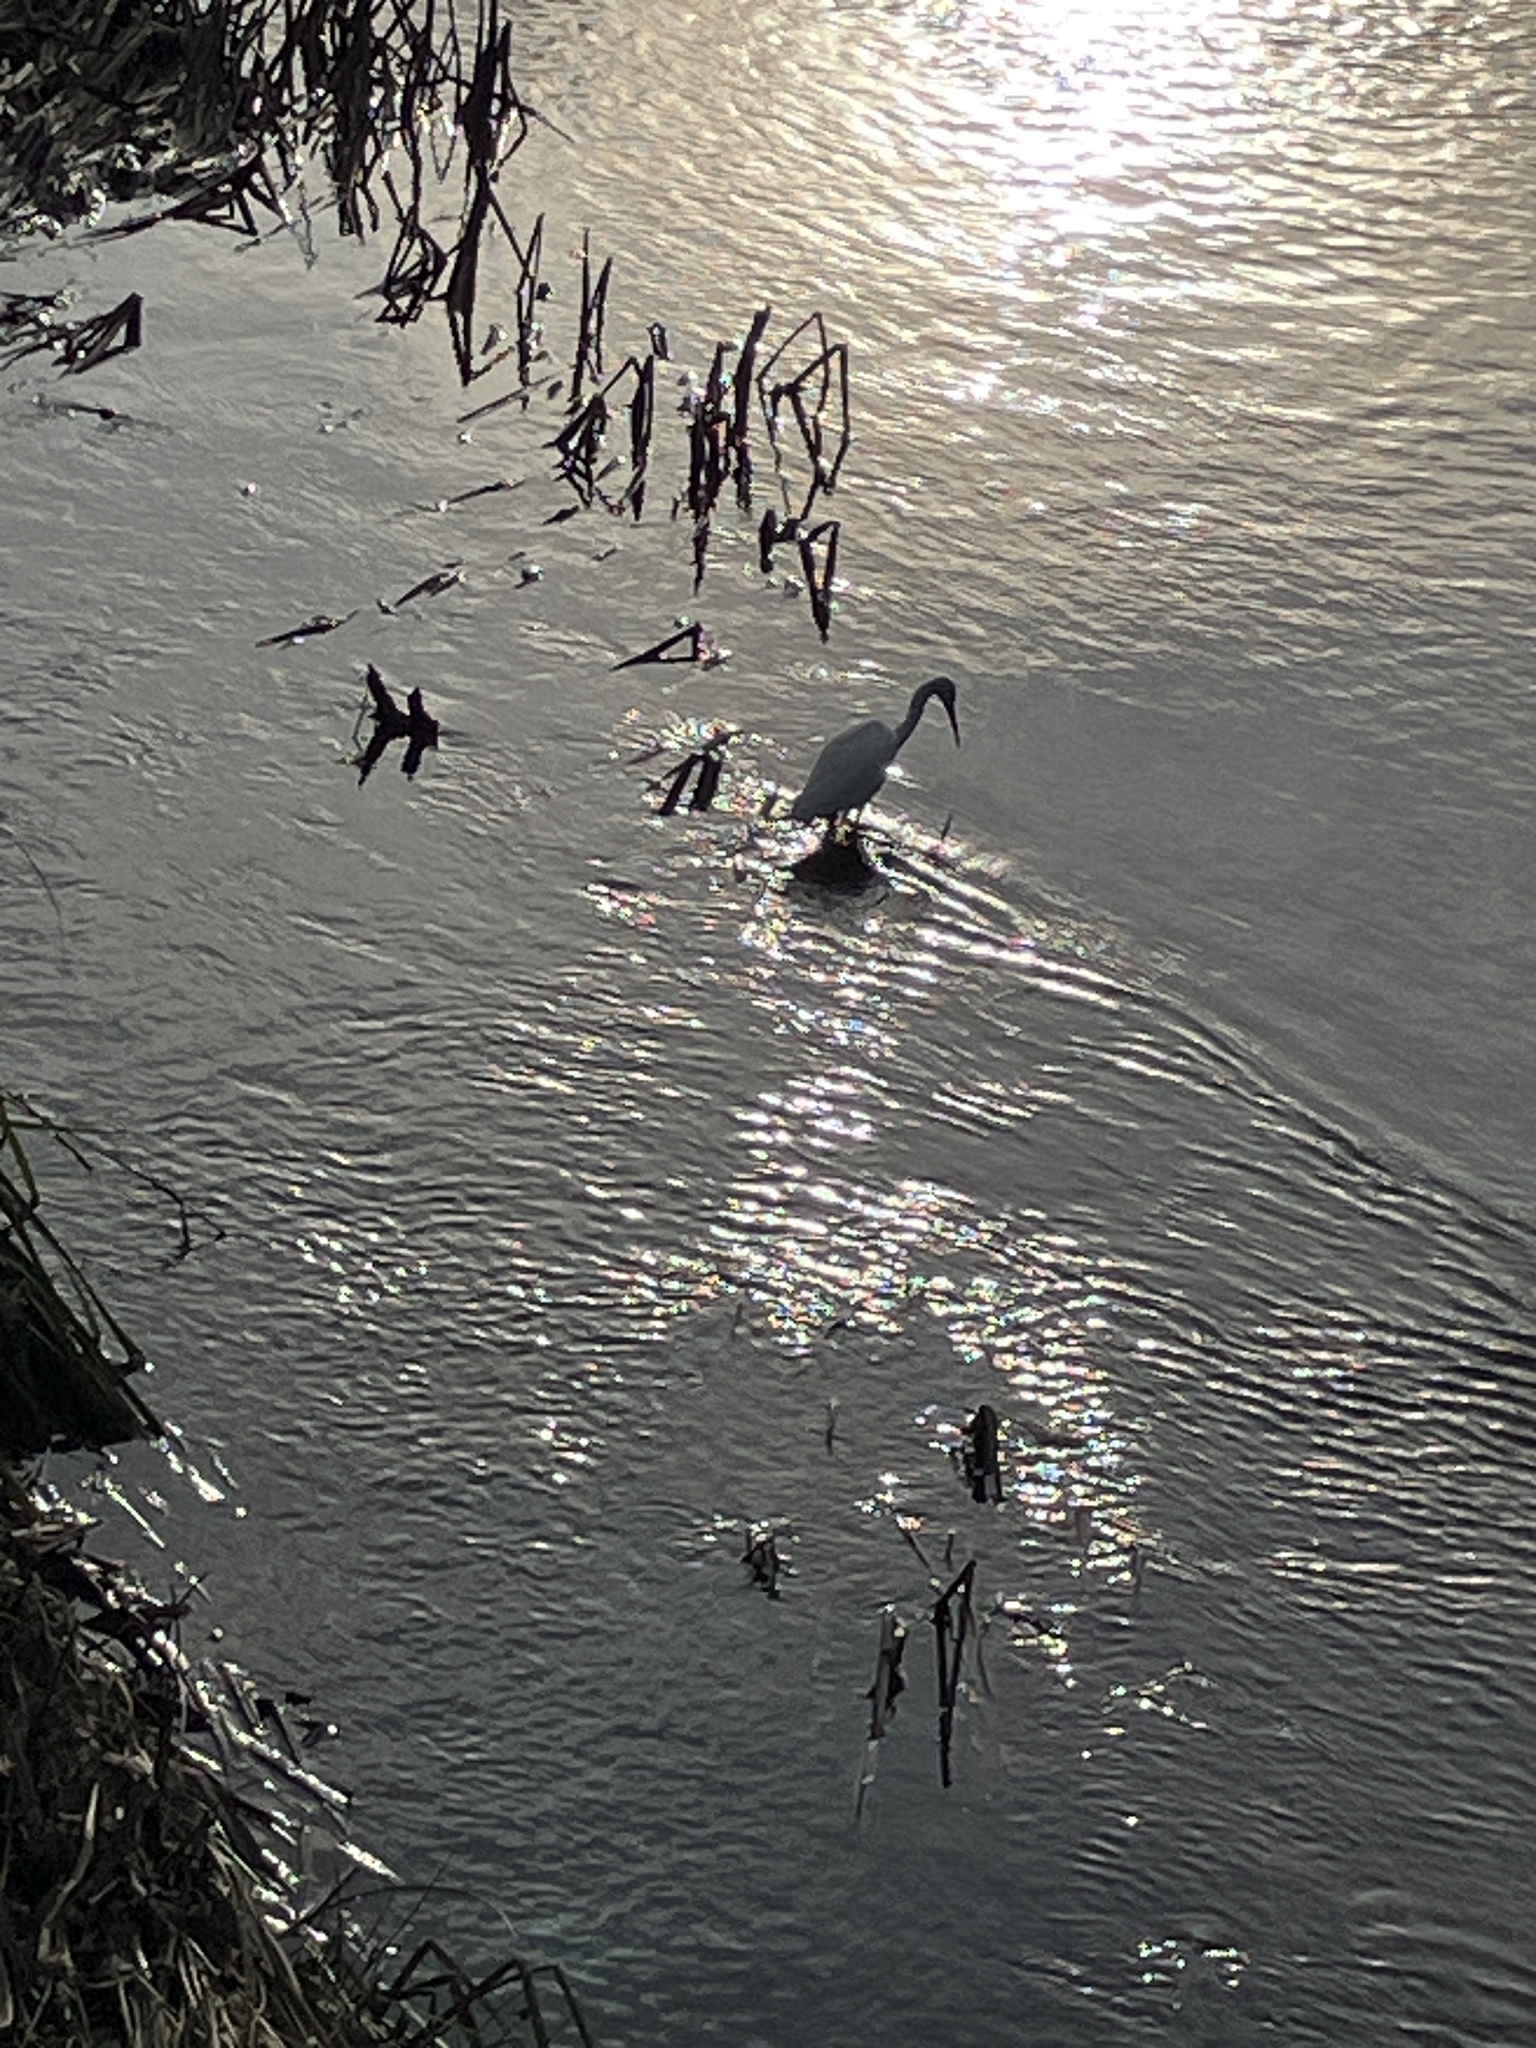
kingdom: Animalia
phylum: Chordata
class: Aves
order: Pelecaniformes
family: Ardeidae
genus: Egretta
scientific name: Egretta garzetta
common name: Little egret
